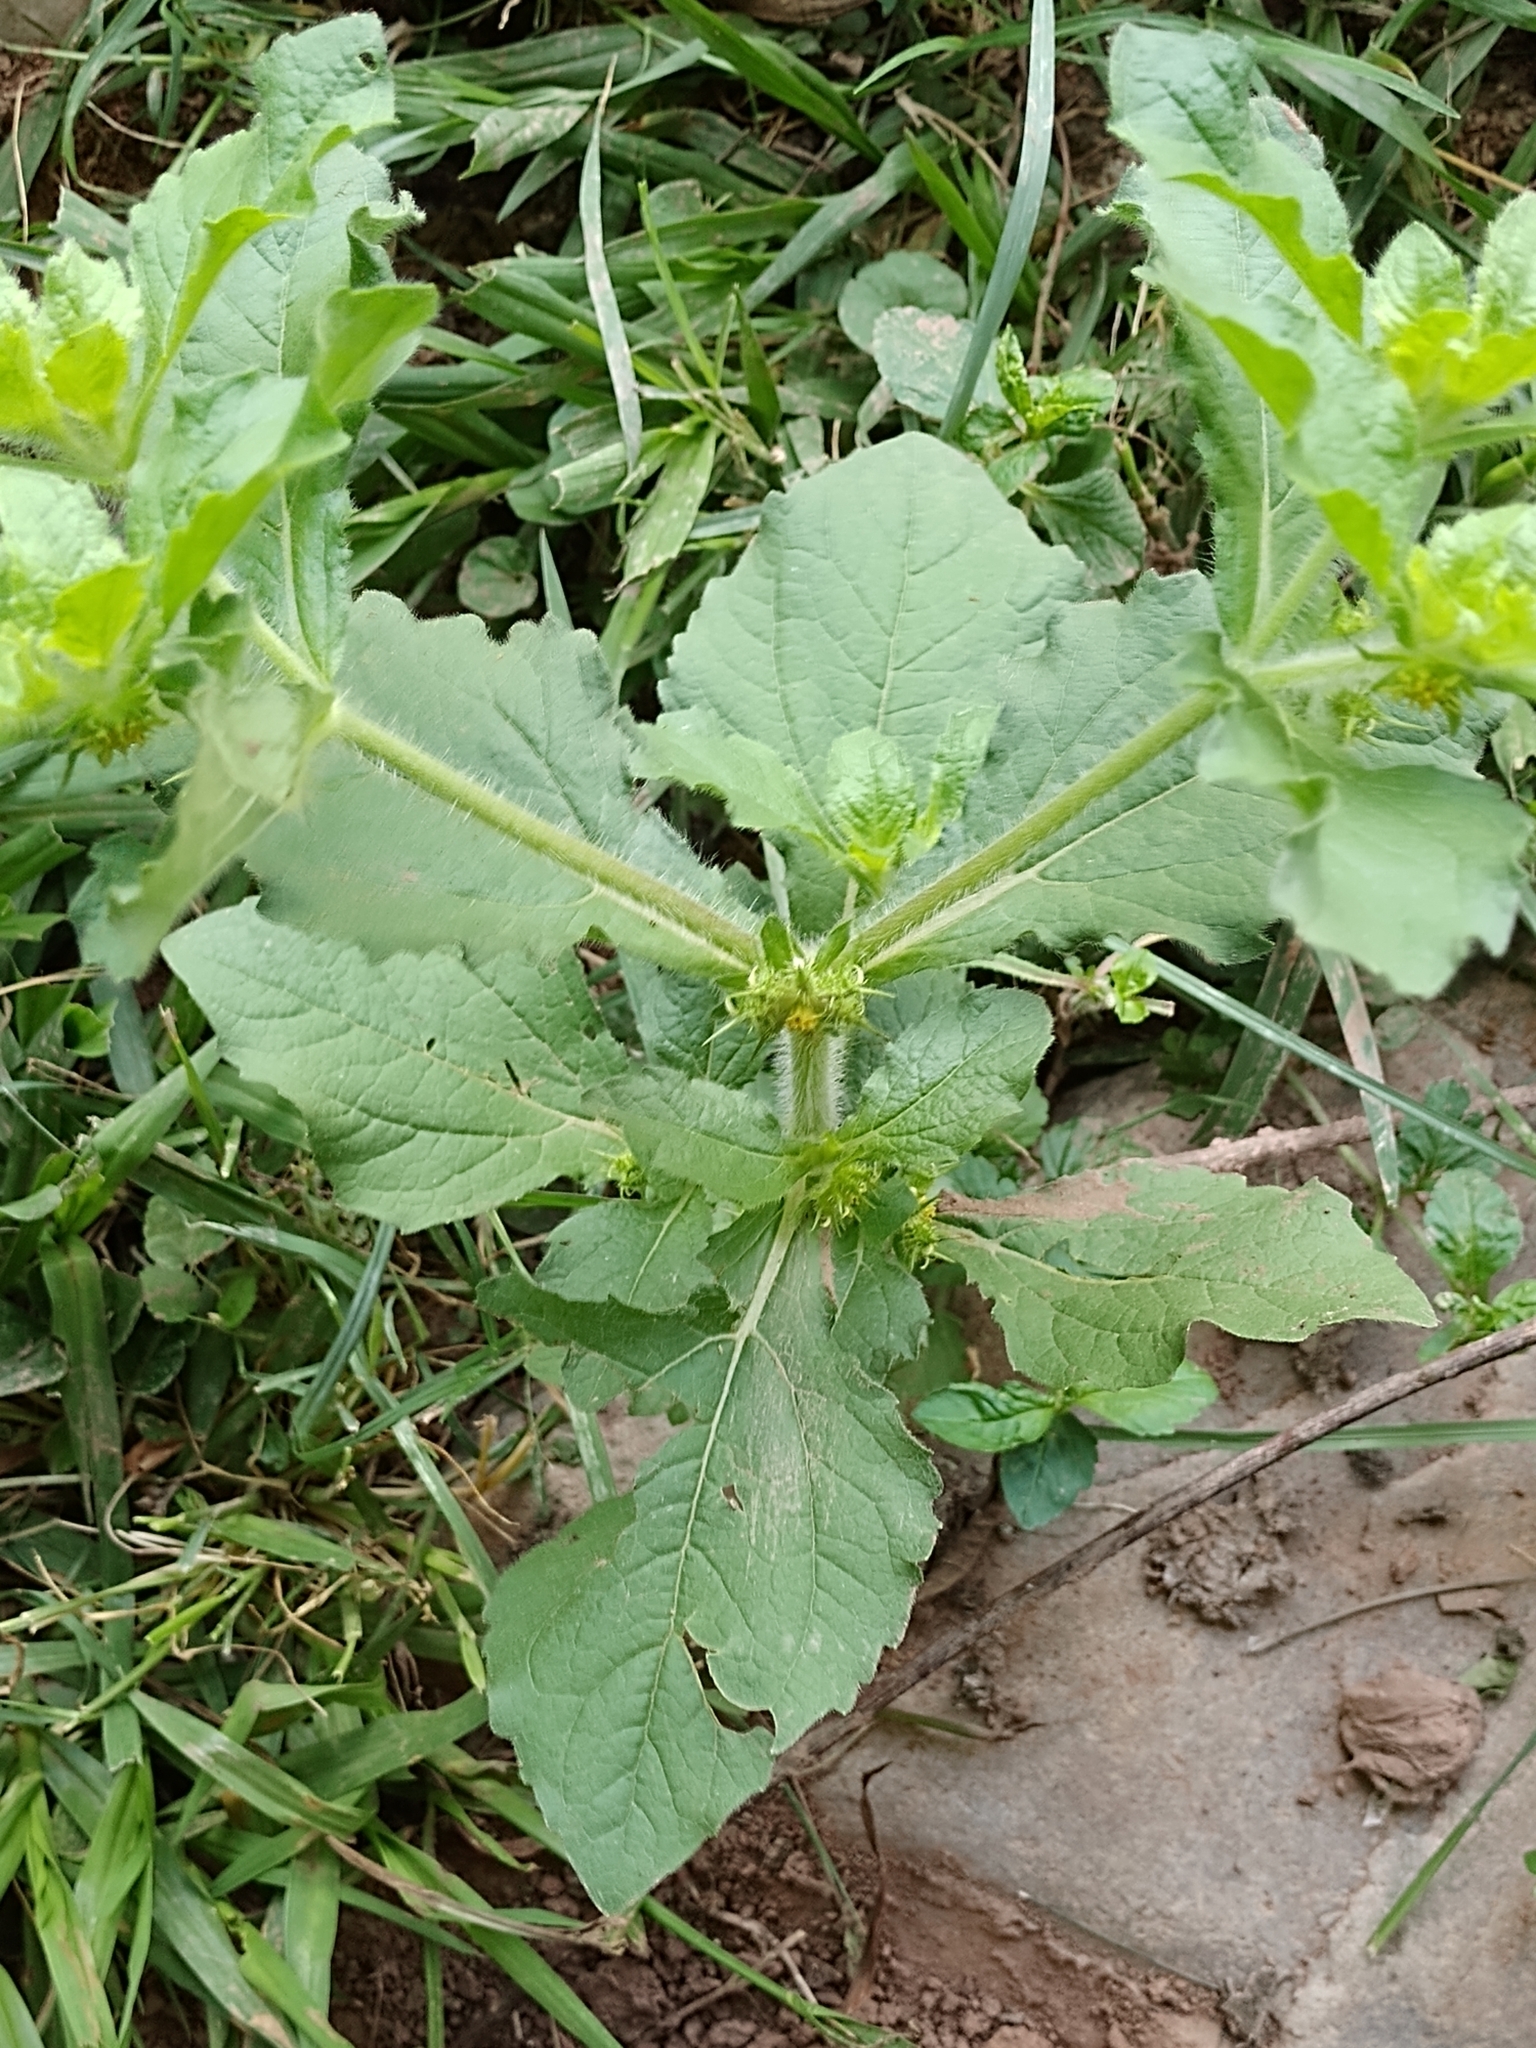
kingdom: Plantae
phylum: Tracheophyta
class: Magnoliopsida
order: Asterales
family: Asteraceae
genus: Acanthospermum
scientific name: Acanthospermum hispidum
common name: Hispid starbur
